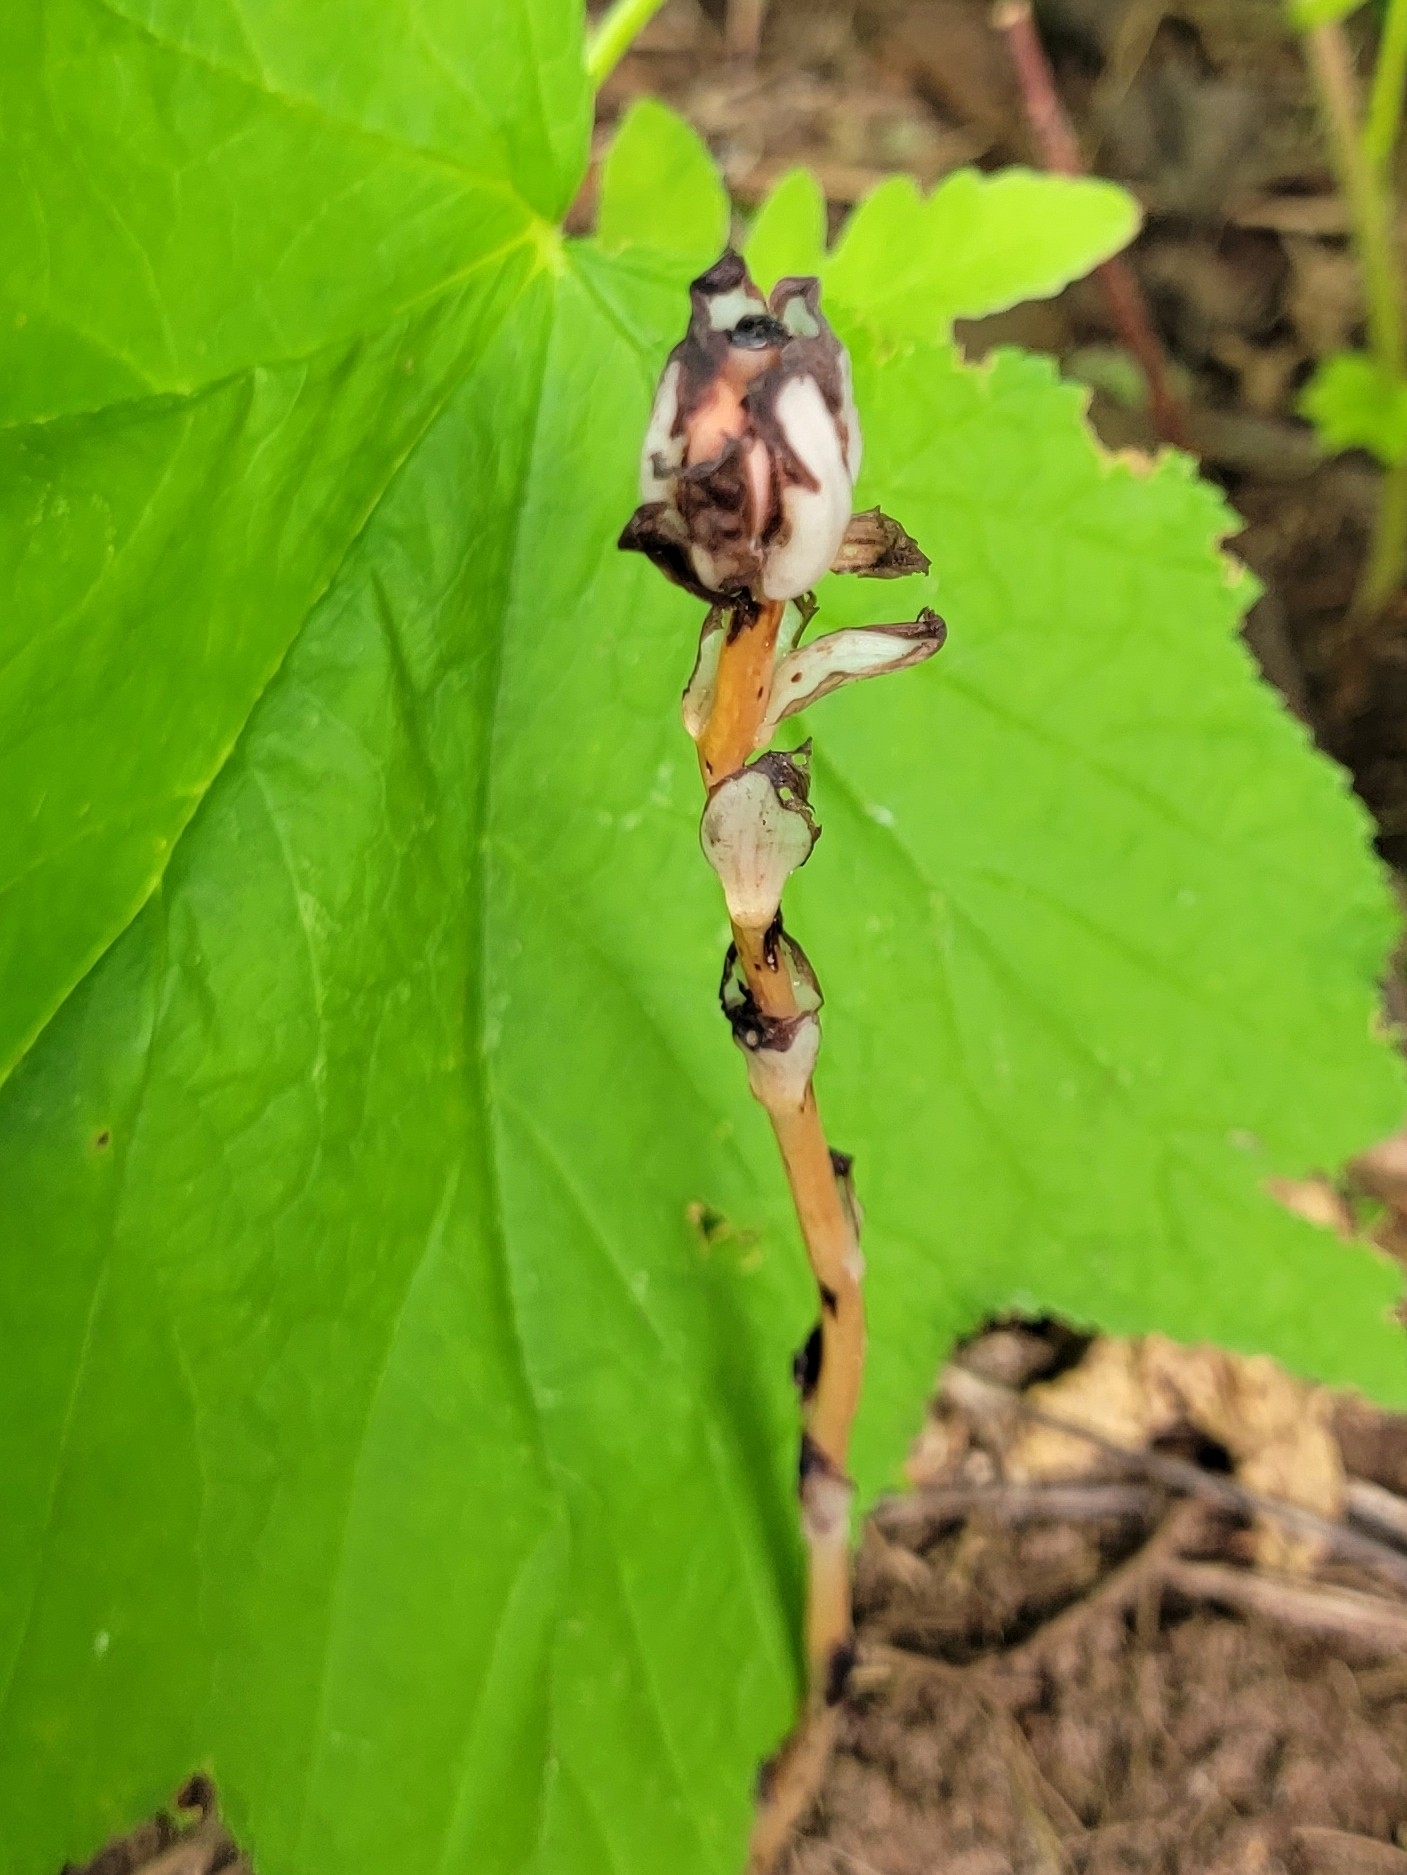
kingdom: Plantae
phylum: Tracheophyta
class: Magnoliopsida
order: Ericales
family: Ericaceae
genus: Monotropa
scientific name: Monotropa uniflora
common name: Convulsion root
